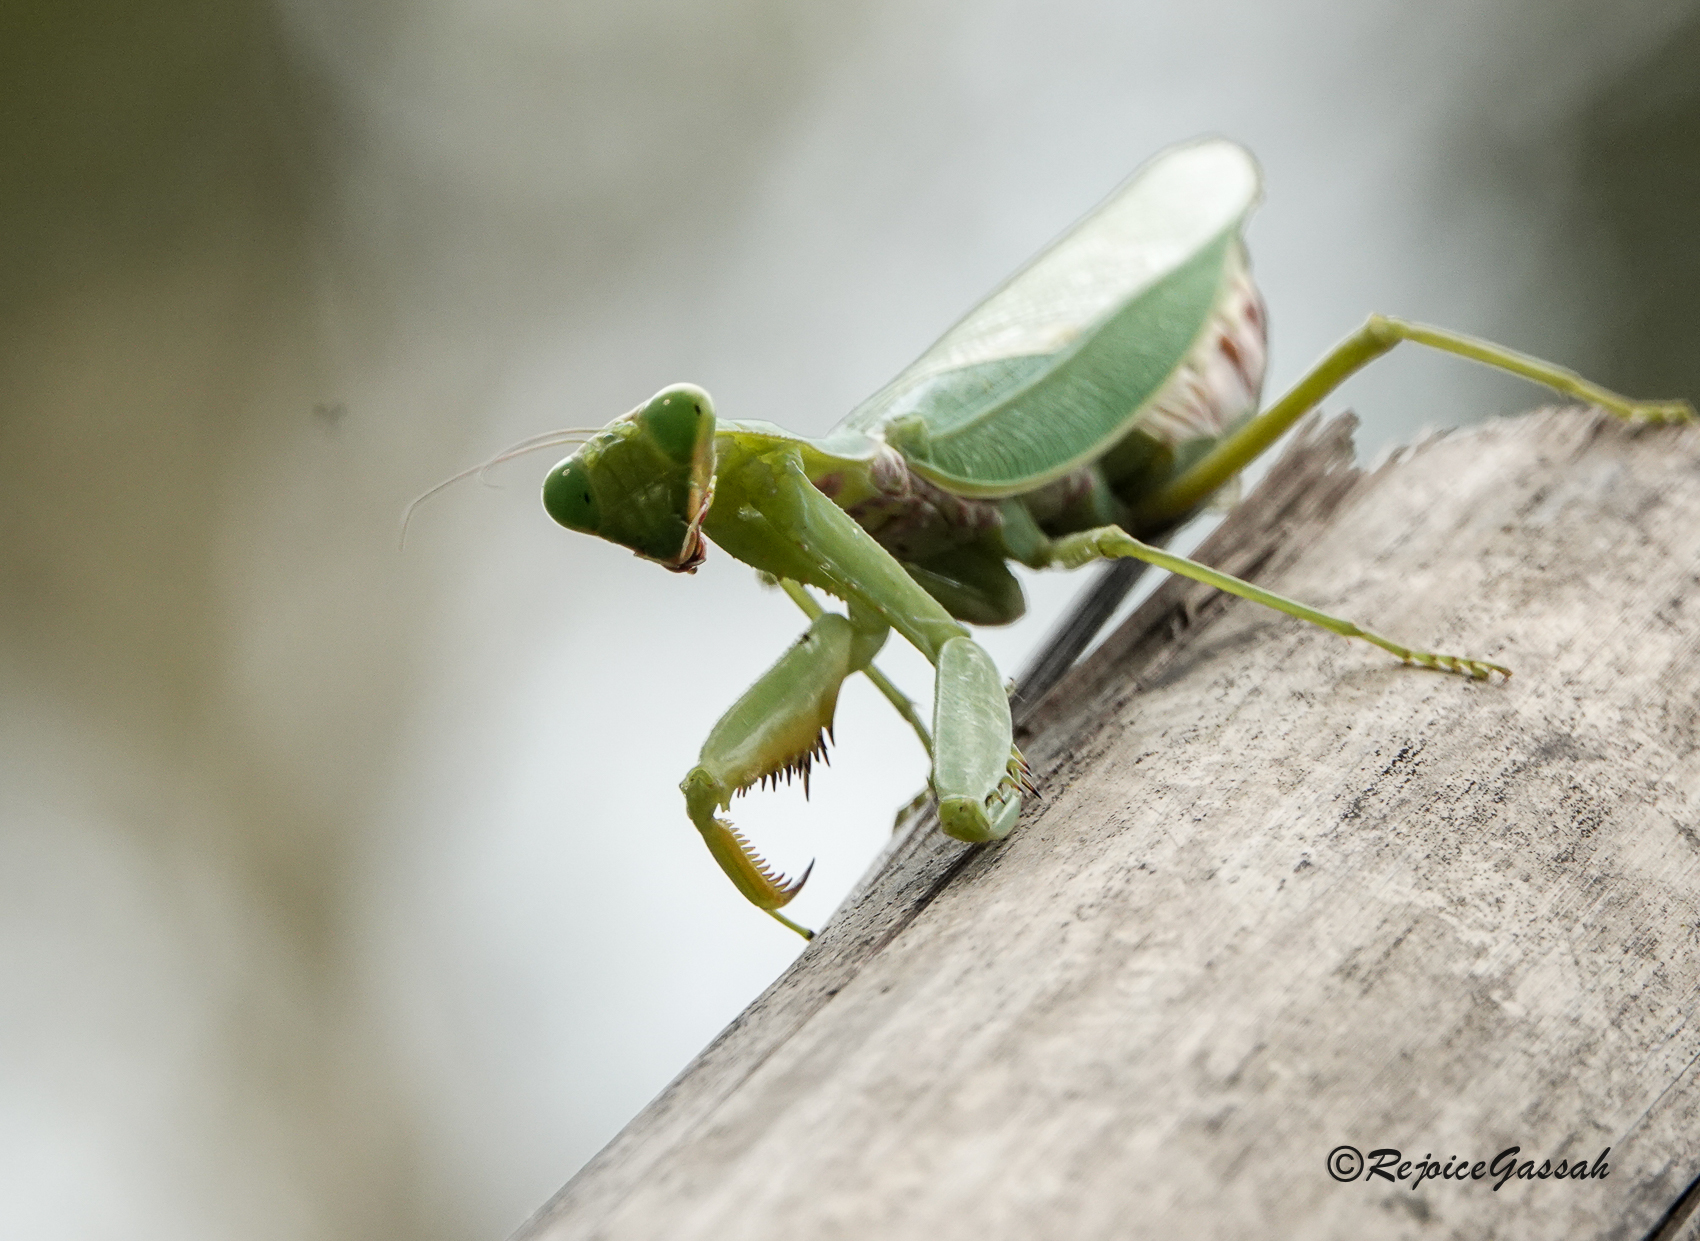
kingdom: Animalia
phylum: Arthropoda
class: Insecta
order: Mantodea
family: Mantidae
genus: Hierodula
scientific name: Hierodula tenuidentata
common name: Giant asian mantis
